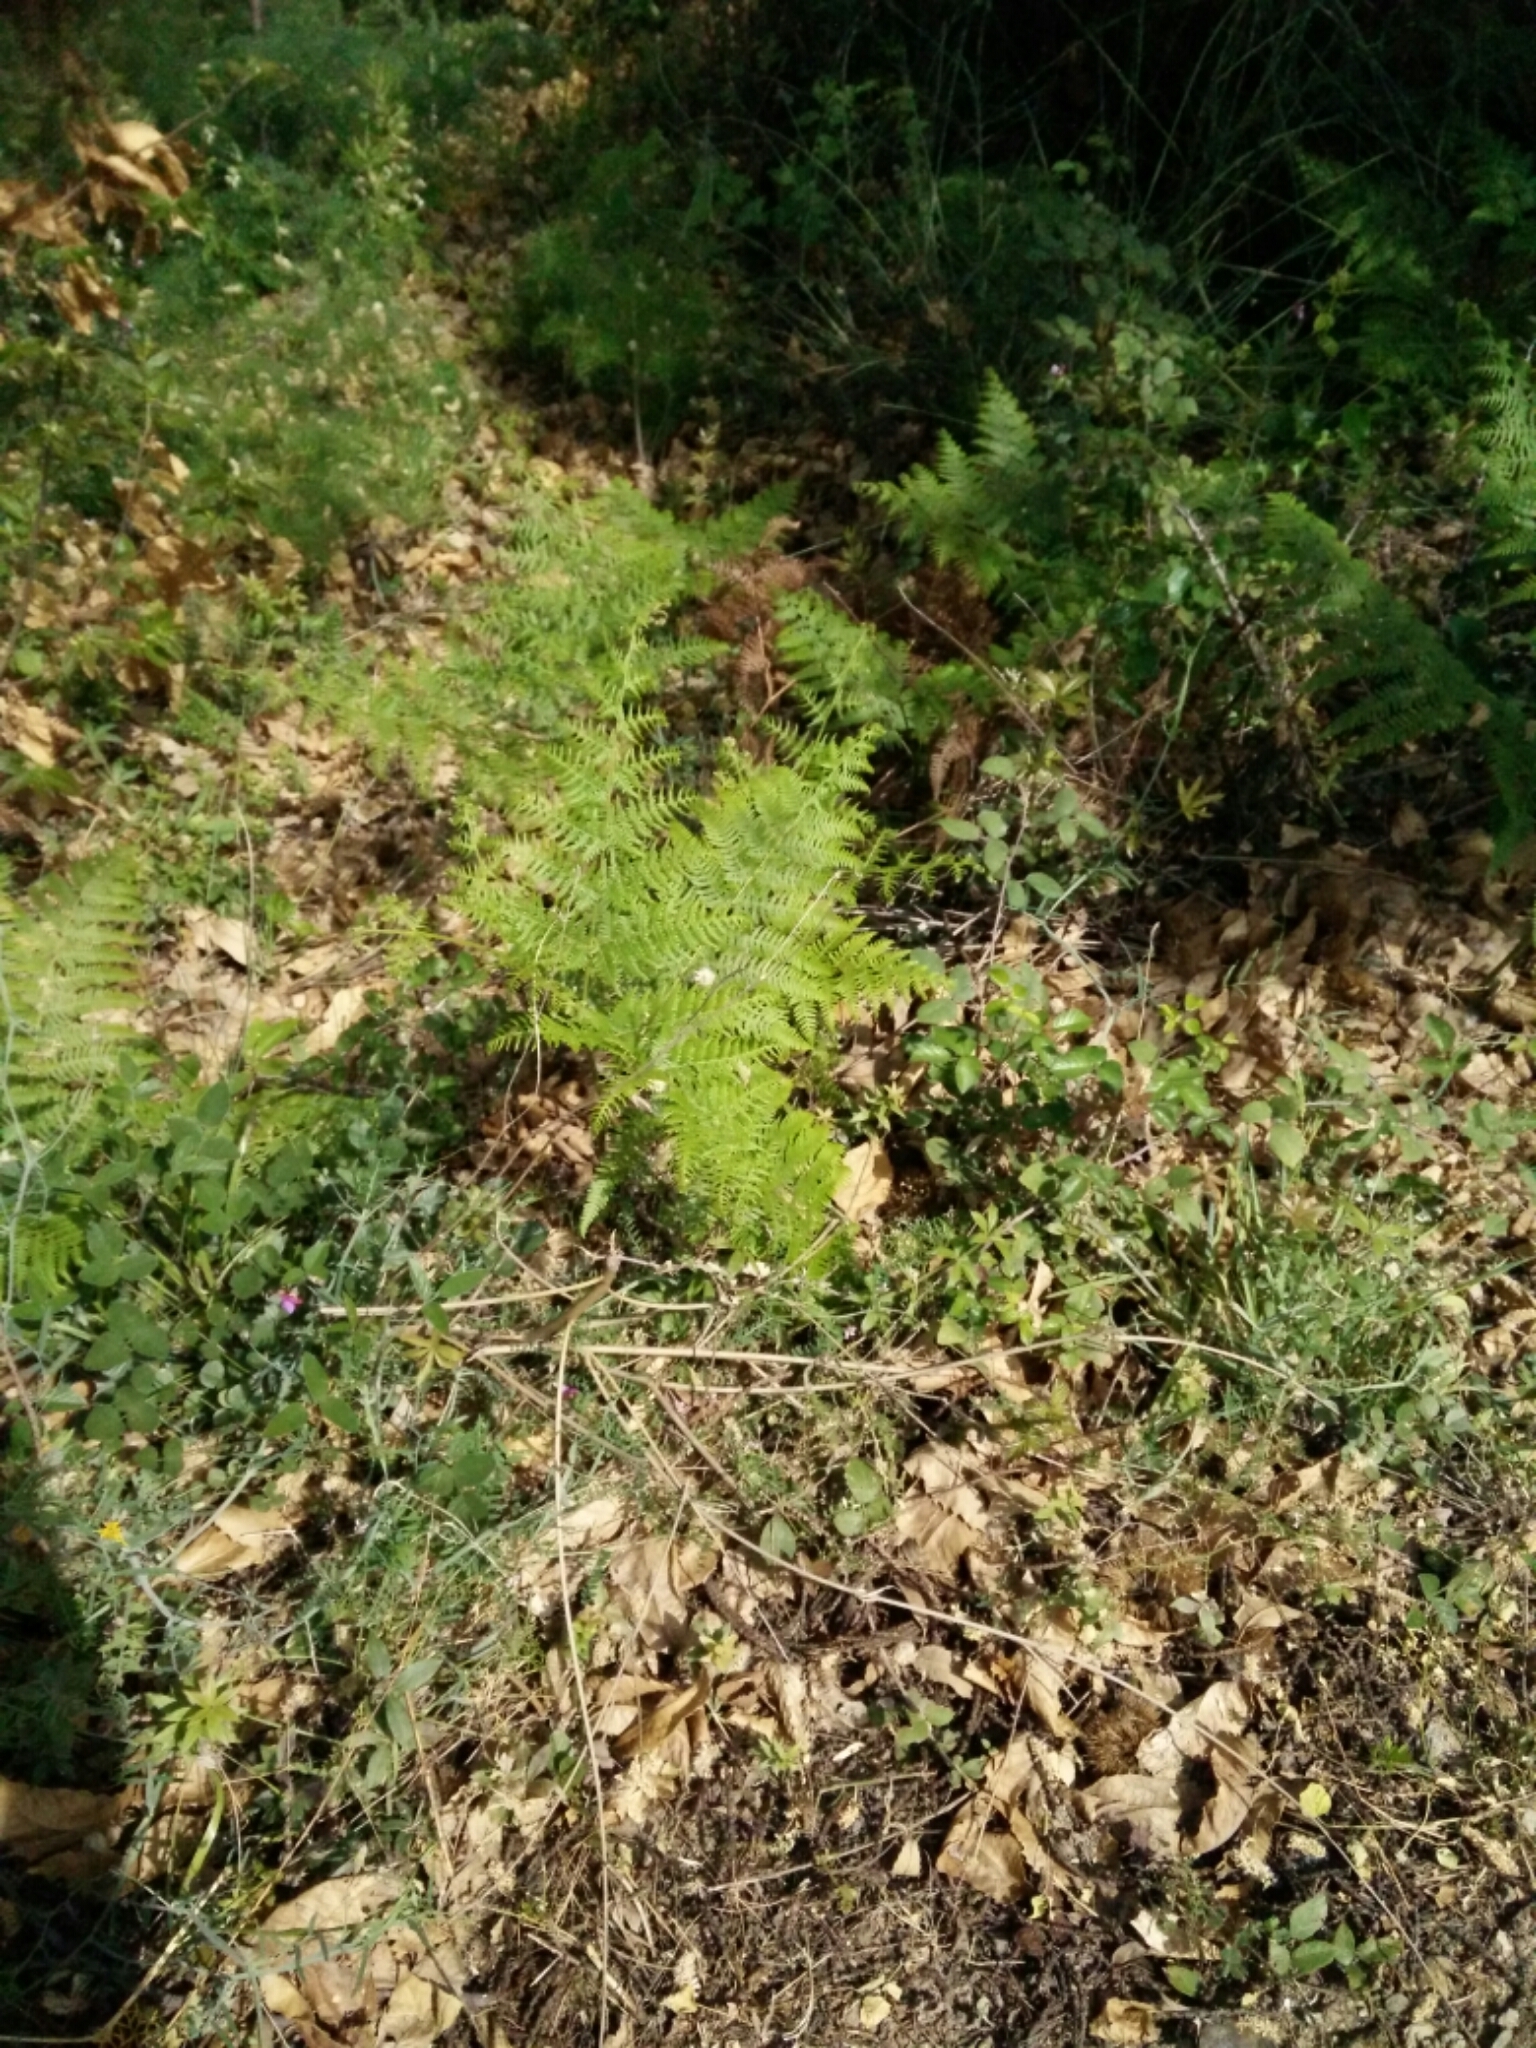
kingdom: Plantae
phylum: Tracheophyta
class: Polypodiopsida
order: Polypodiales
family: Dennstaedtiaceae
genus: Pteridium
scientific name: Pteridium aquilinum
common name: Bracken
